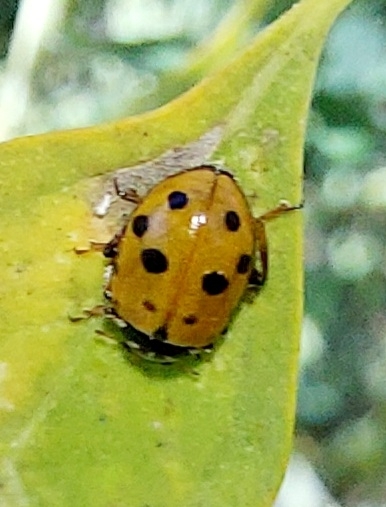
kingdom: Animalia
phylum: Arthropoda
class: Insecta
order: Coleoptera
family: Coccinellidae
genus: Hippodamia
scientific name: Hippodamia variegata
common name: Ladybird beetle
